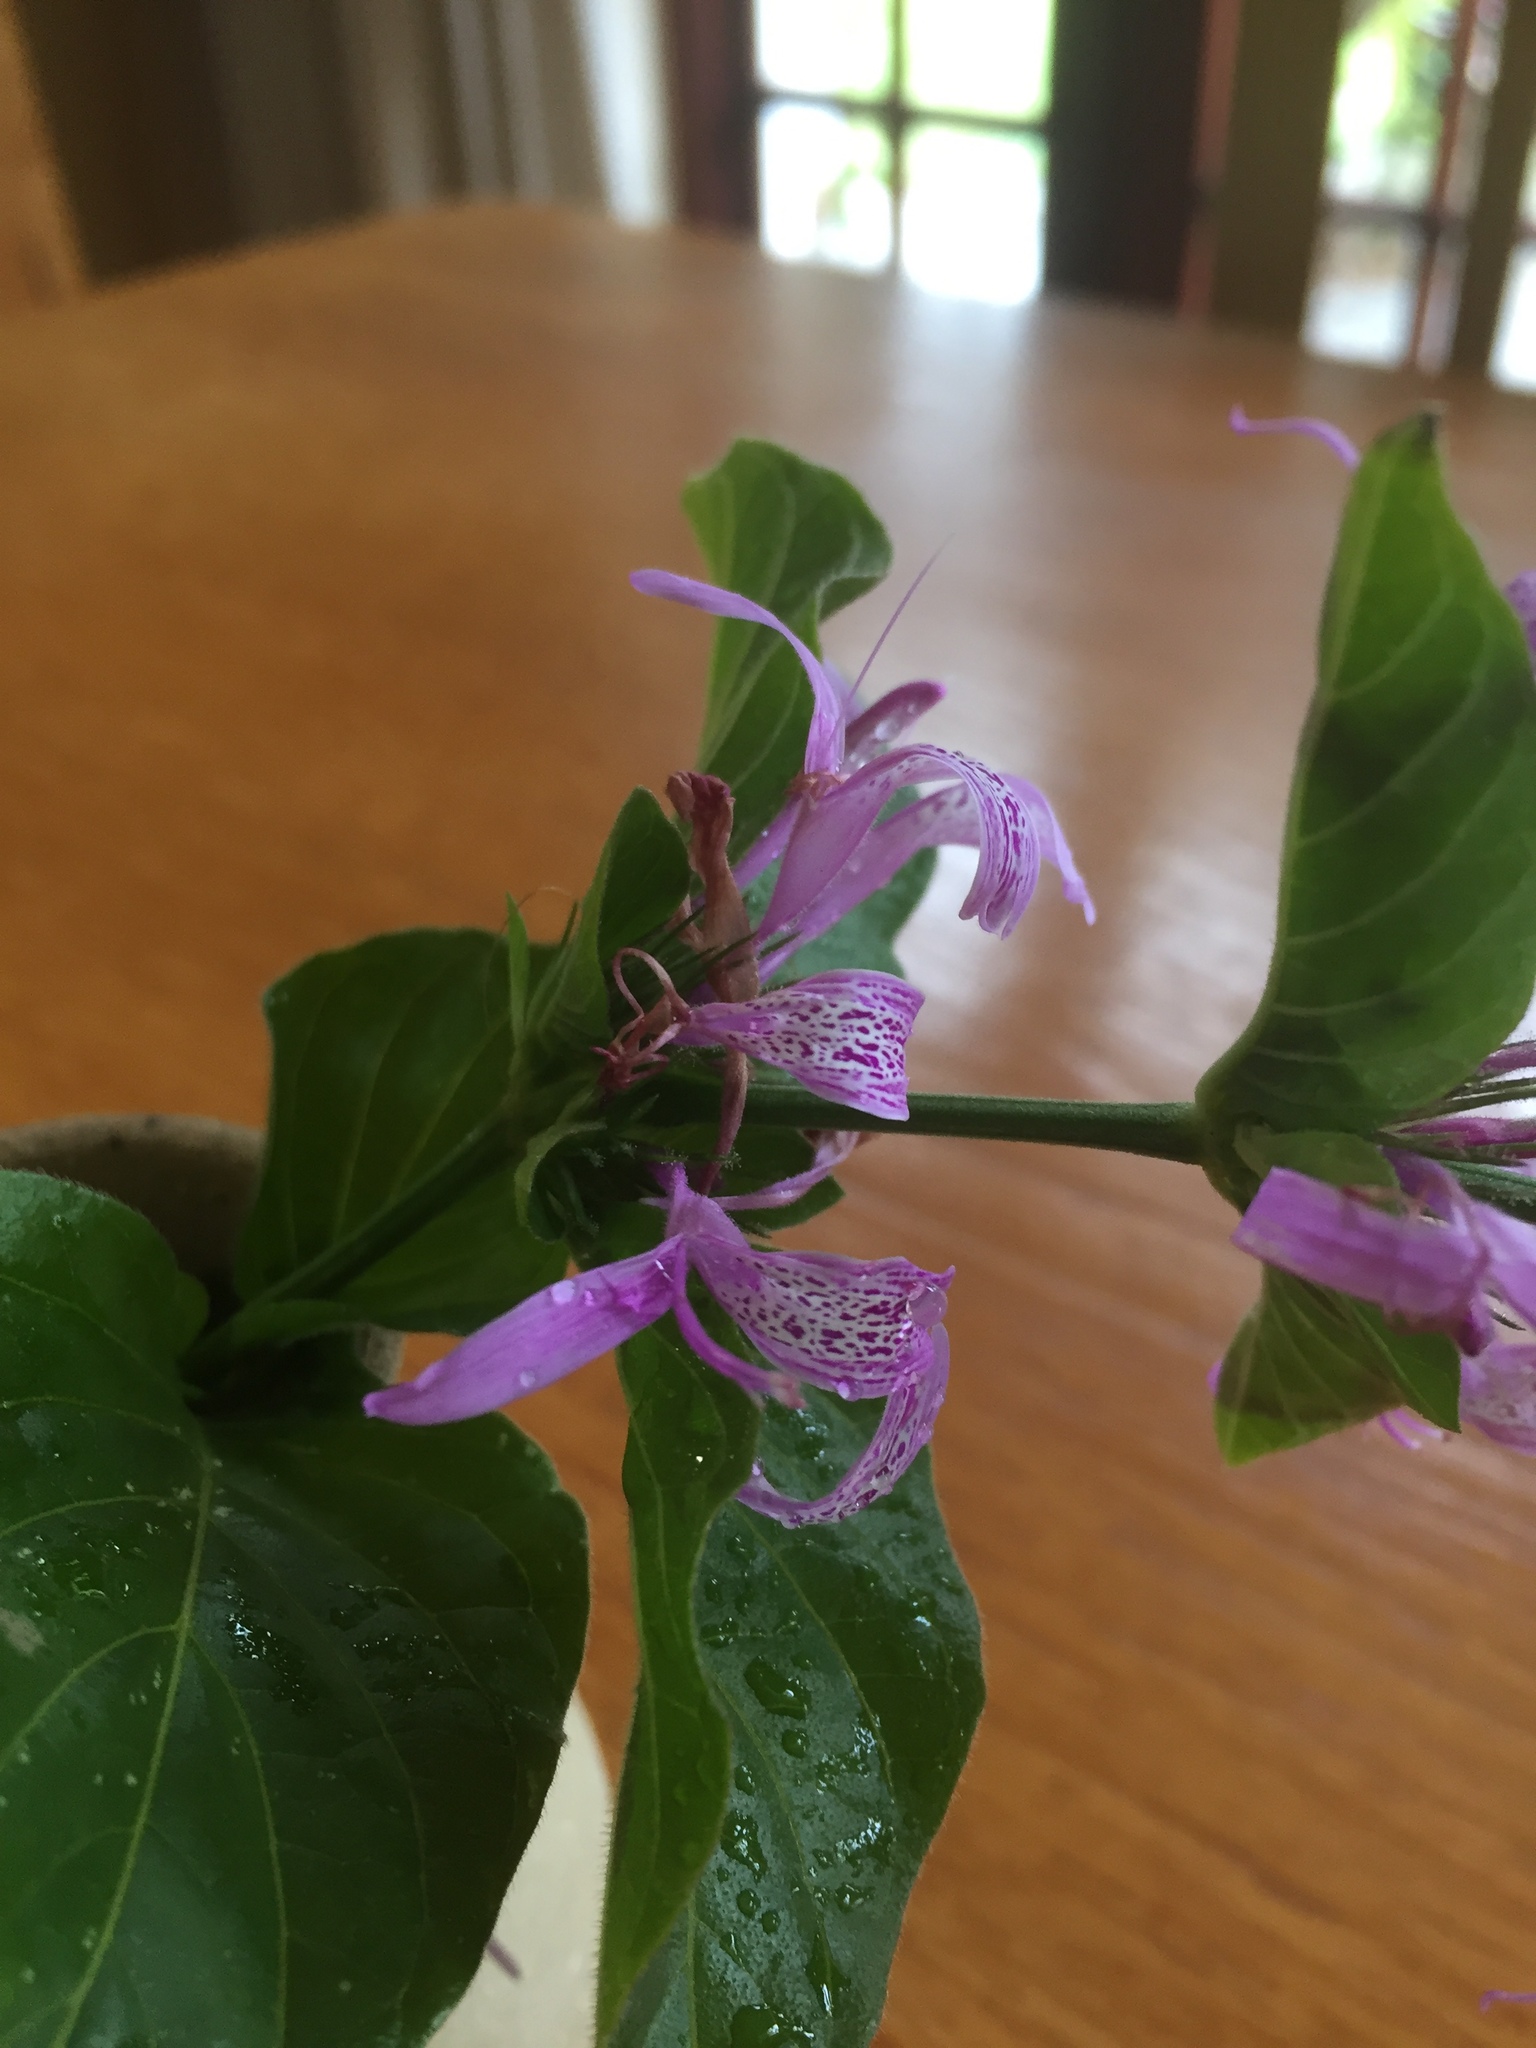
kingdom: Plantae
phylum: Tracheophyta
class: Magnoliopsida
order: Lamiales
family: Acanthaceae
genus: Hypoestes
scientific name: Hypoestes aristata
